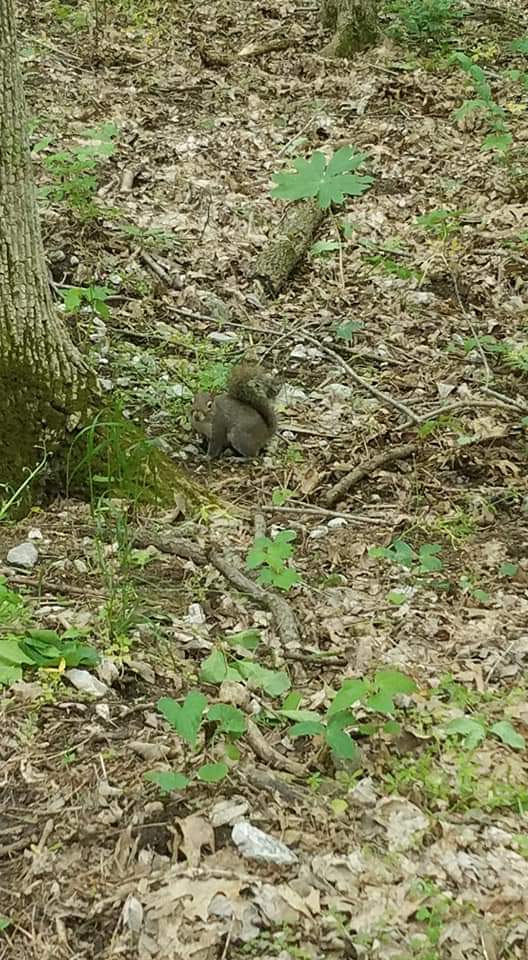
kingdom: Animalia
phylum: Chordata
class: Mammalia
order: Rodentia
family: Sciuridae
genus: Sciurus
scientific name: Sciurus carolinensis
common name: Eastern gray squirrel
